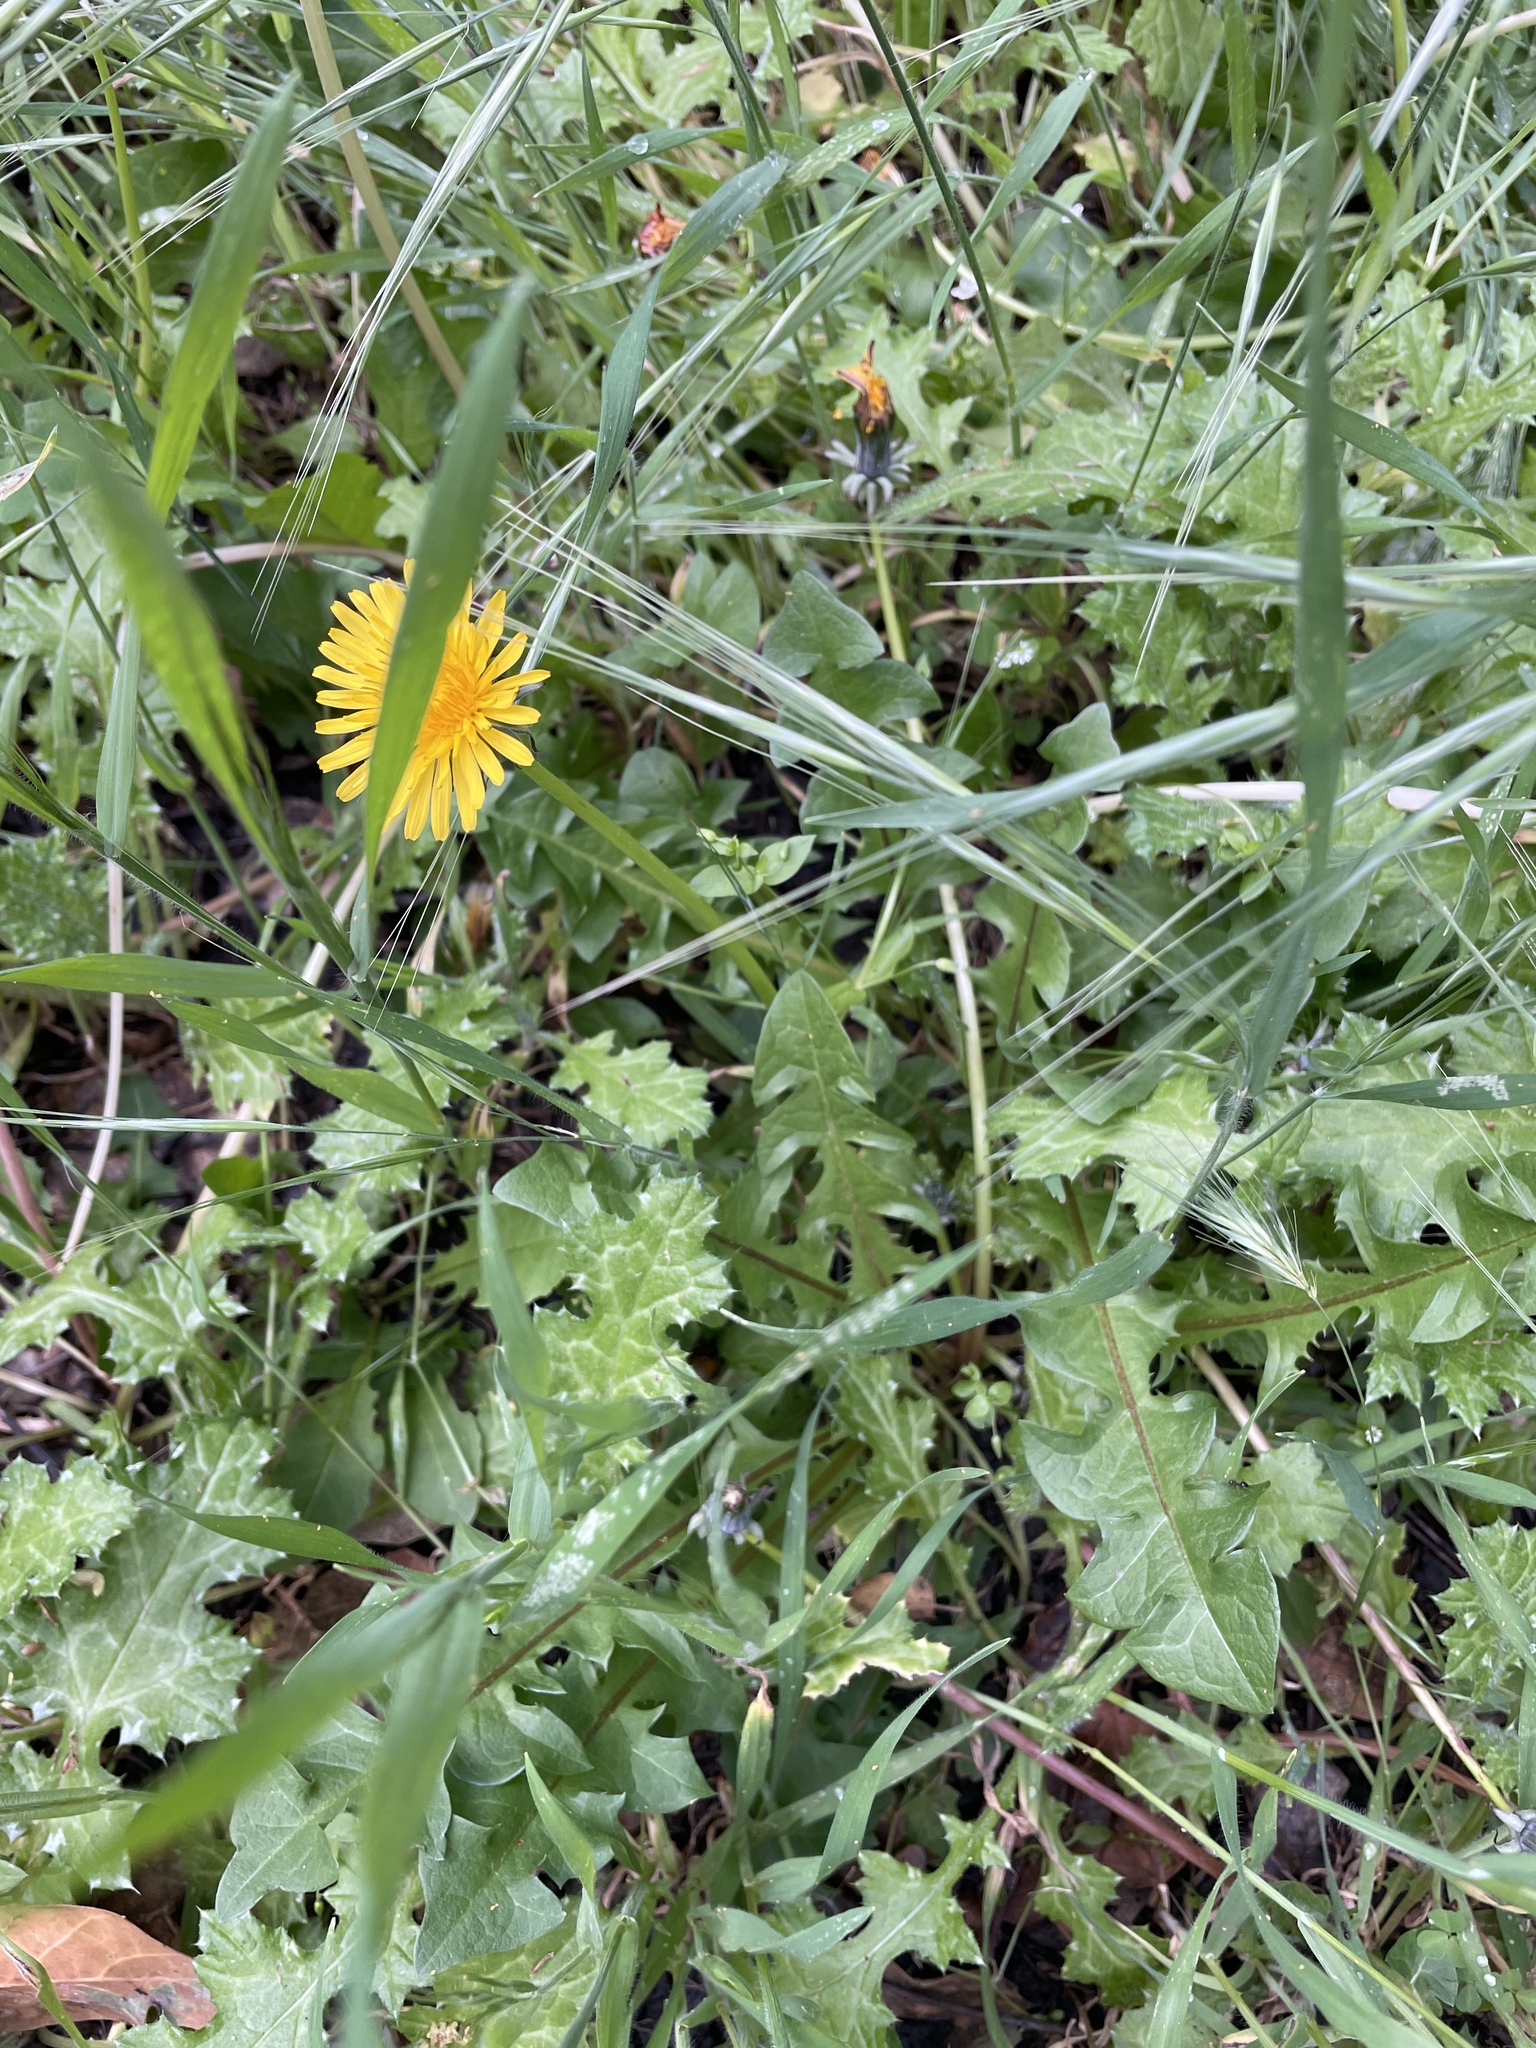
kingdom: Plantae
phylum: Tracheophyta
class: Magnoliopsida
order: Asterales
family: Asteraceae
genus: Taraxacum
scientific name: Taraxacum
